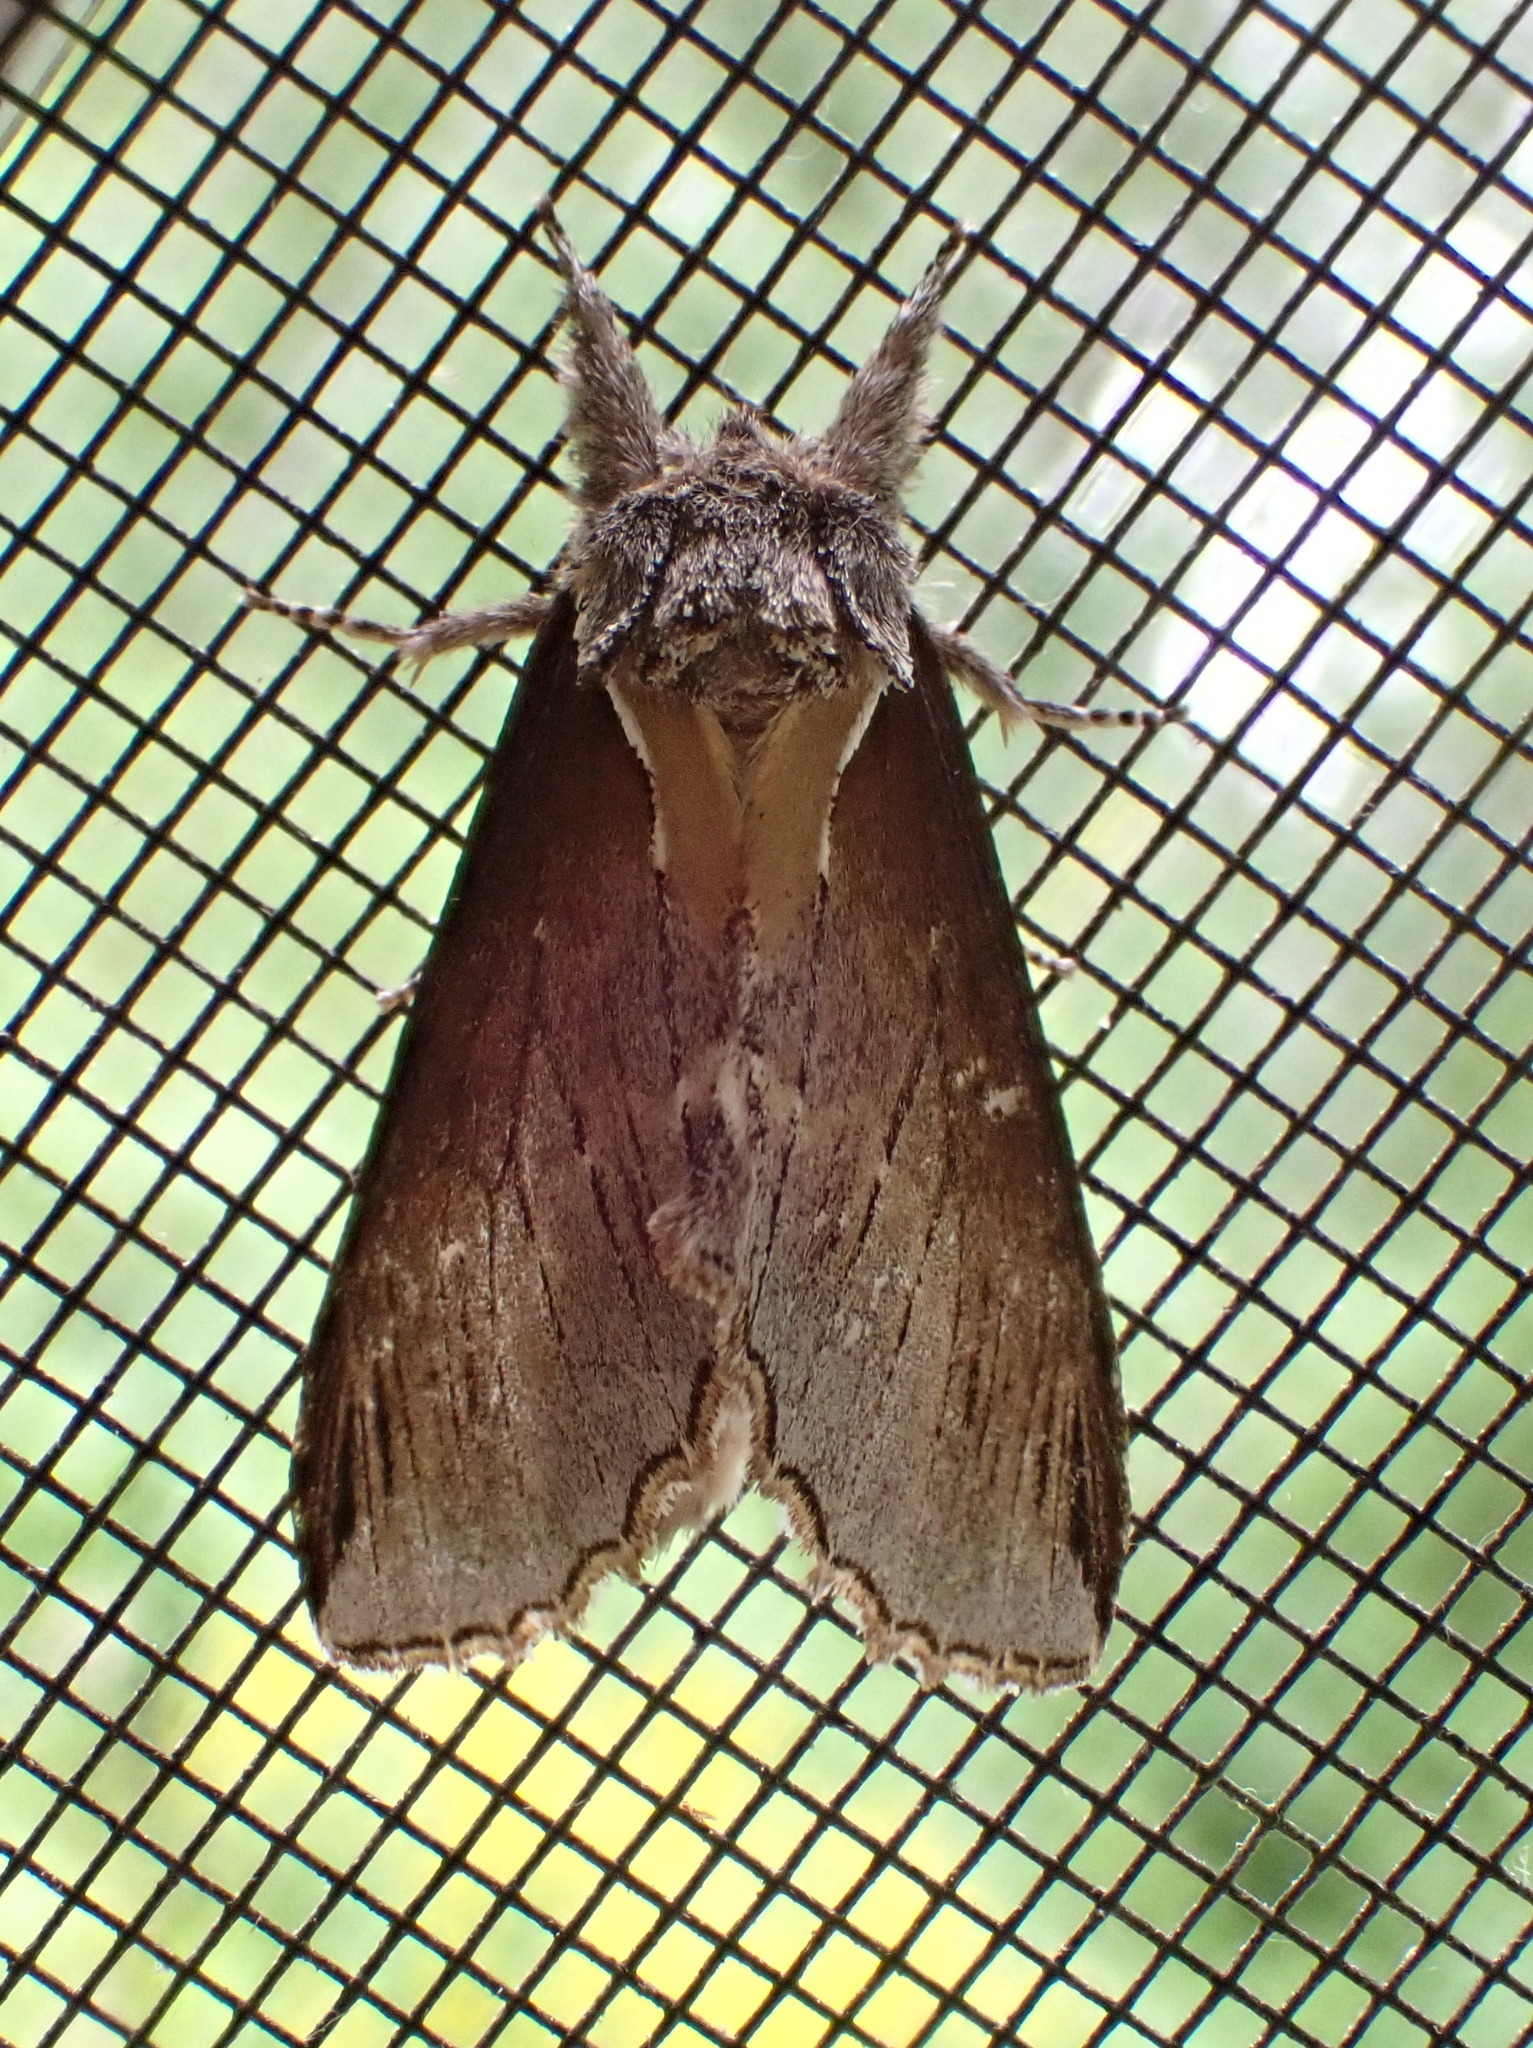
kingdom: Animalia
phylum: Arthropoda
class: Insecta
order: Lepidoptera
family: Notodontidae
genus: Pheosidea
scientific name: Pheosidea elegans
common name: Elegant prominent
